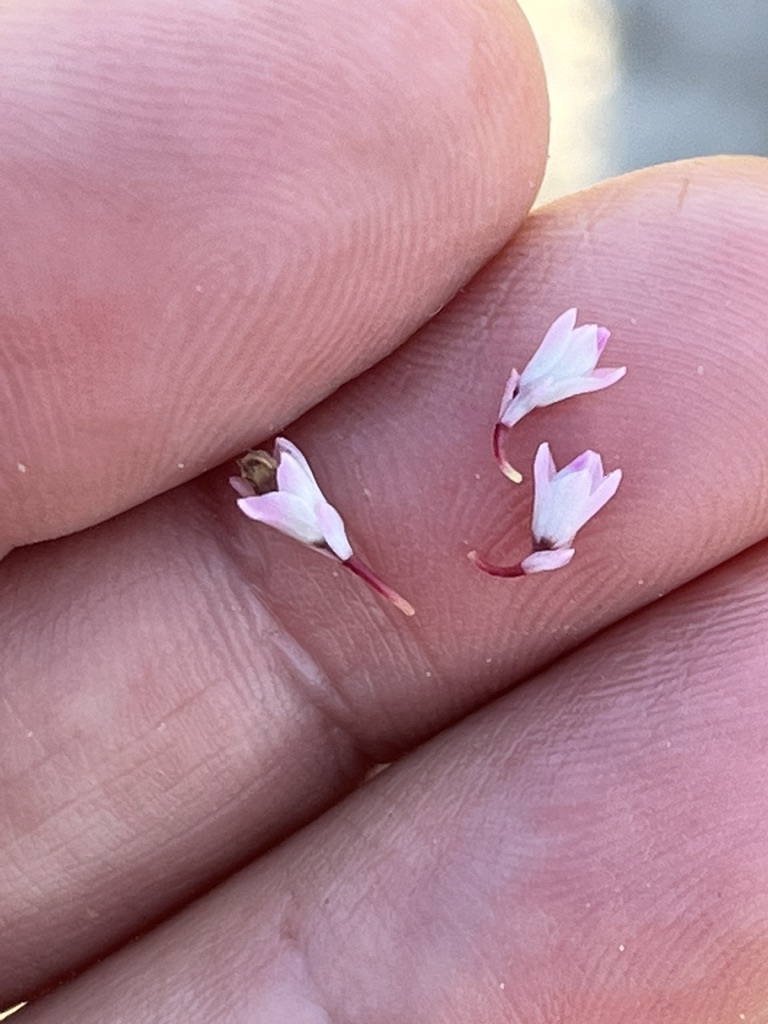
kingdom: Plantae
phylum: Tracheophyta
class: Magnoliopsida
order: Ericales
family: Ericaceae
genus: Erica
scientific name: Erica articularis
